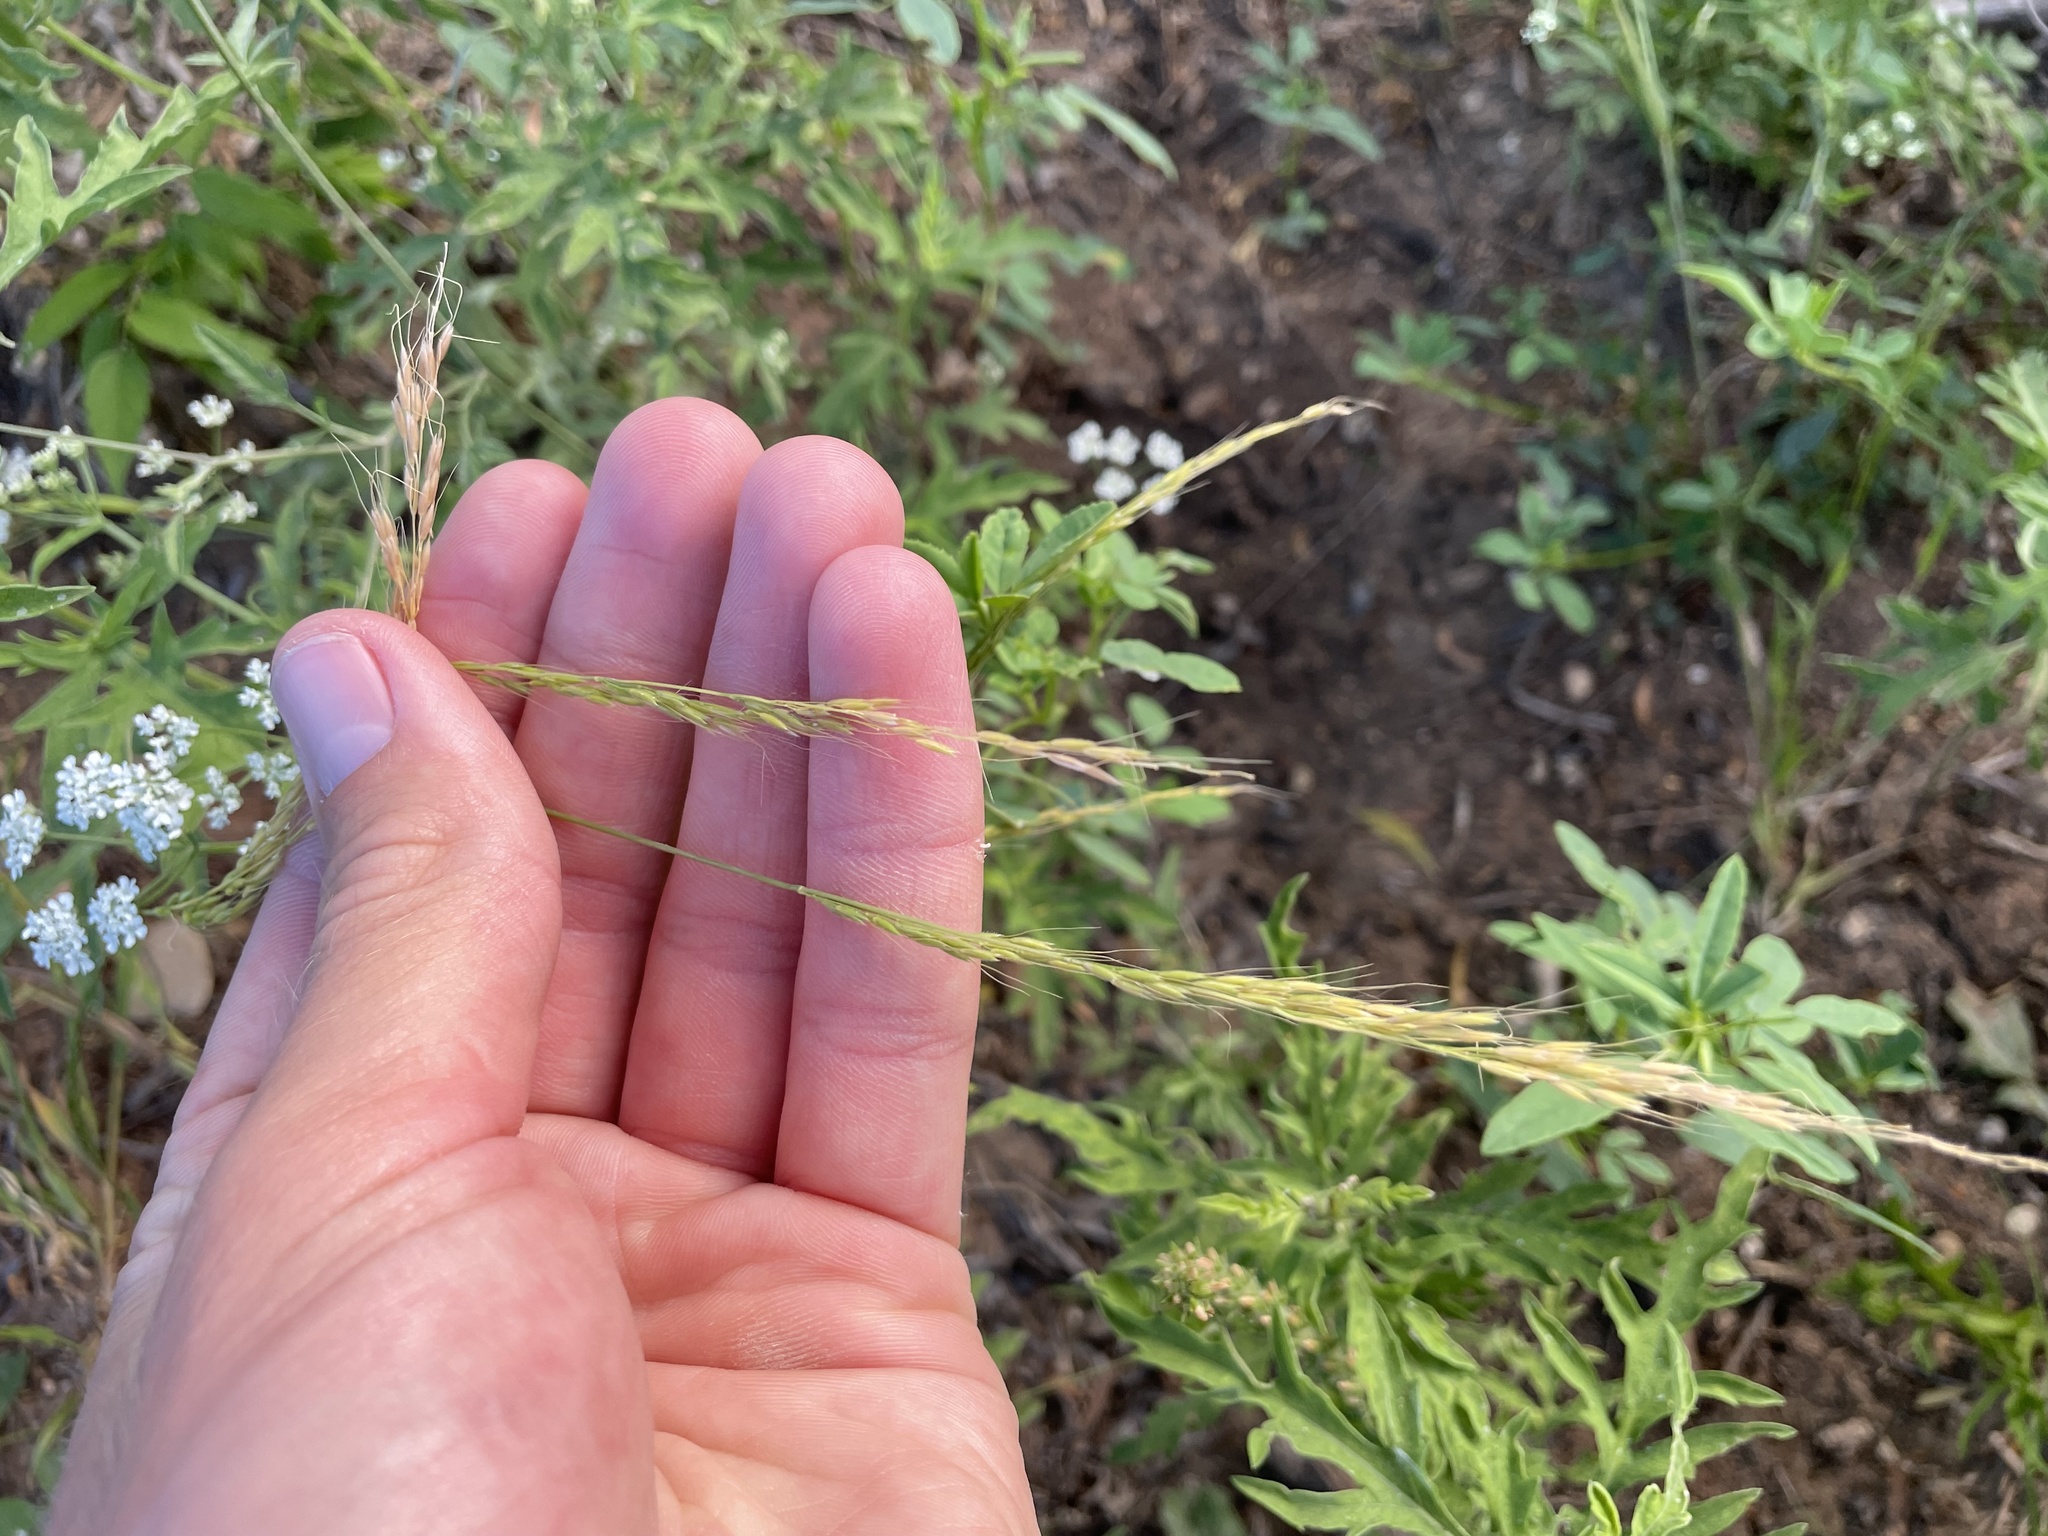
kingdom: Plantae
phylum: Tracheophyta
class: Liliopsida
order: Poales
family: Poaceae
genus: Limnodea
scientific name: Limnodea arkansana
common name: Ozark-grass
